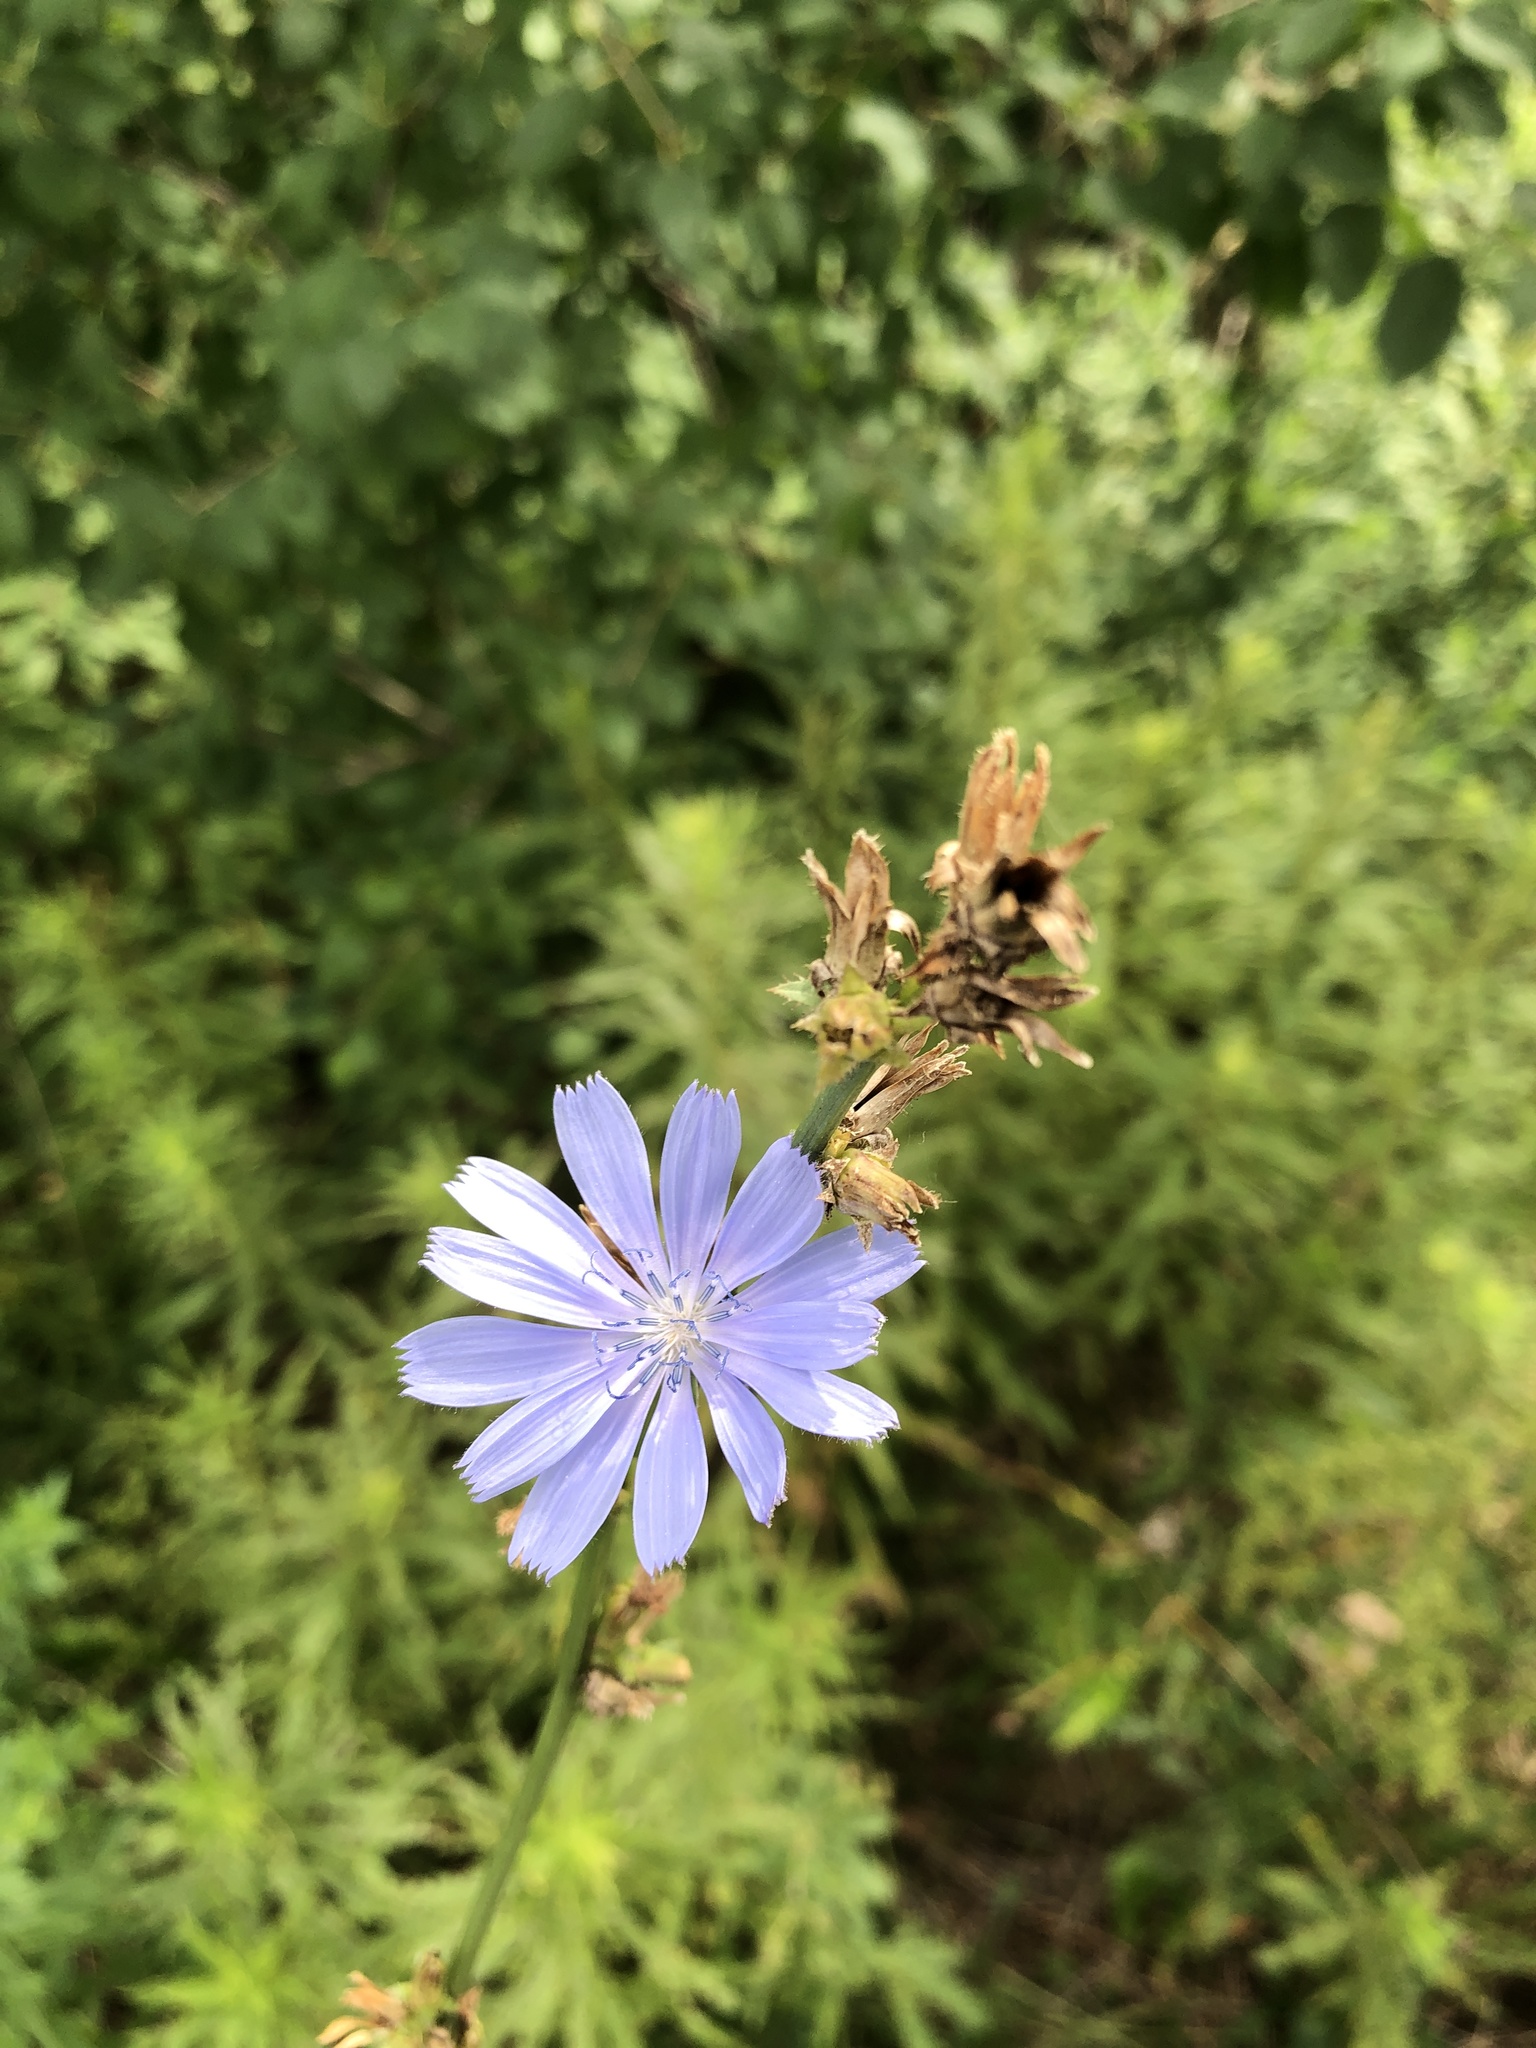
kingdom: Plantae
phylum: Tracheophyta
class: Magnoliopsida
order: Asterales
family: Asteraceae
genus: Cichorium
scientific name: Cichorium intybus
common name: Chicory
